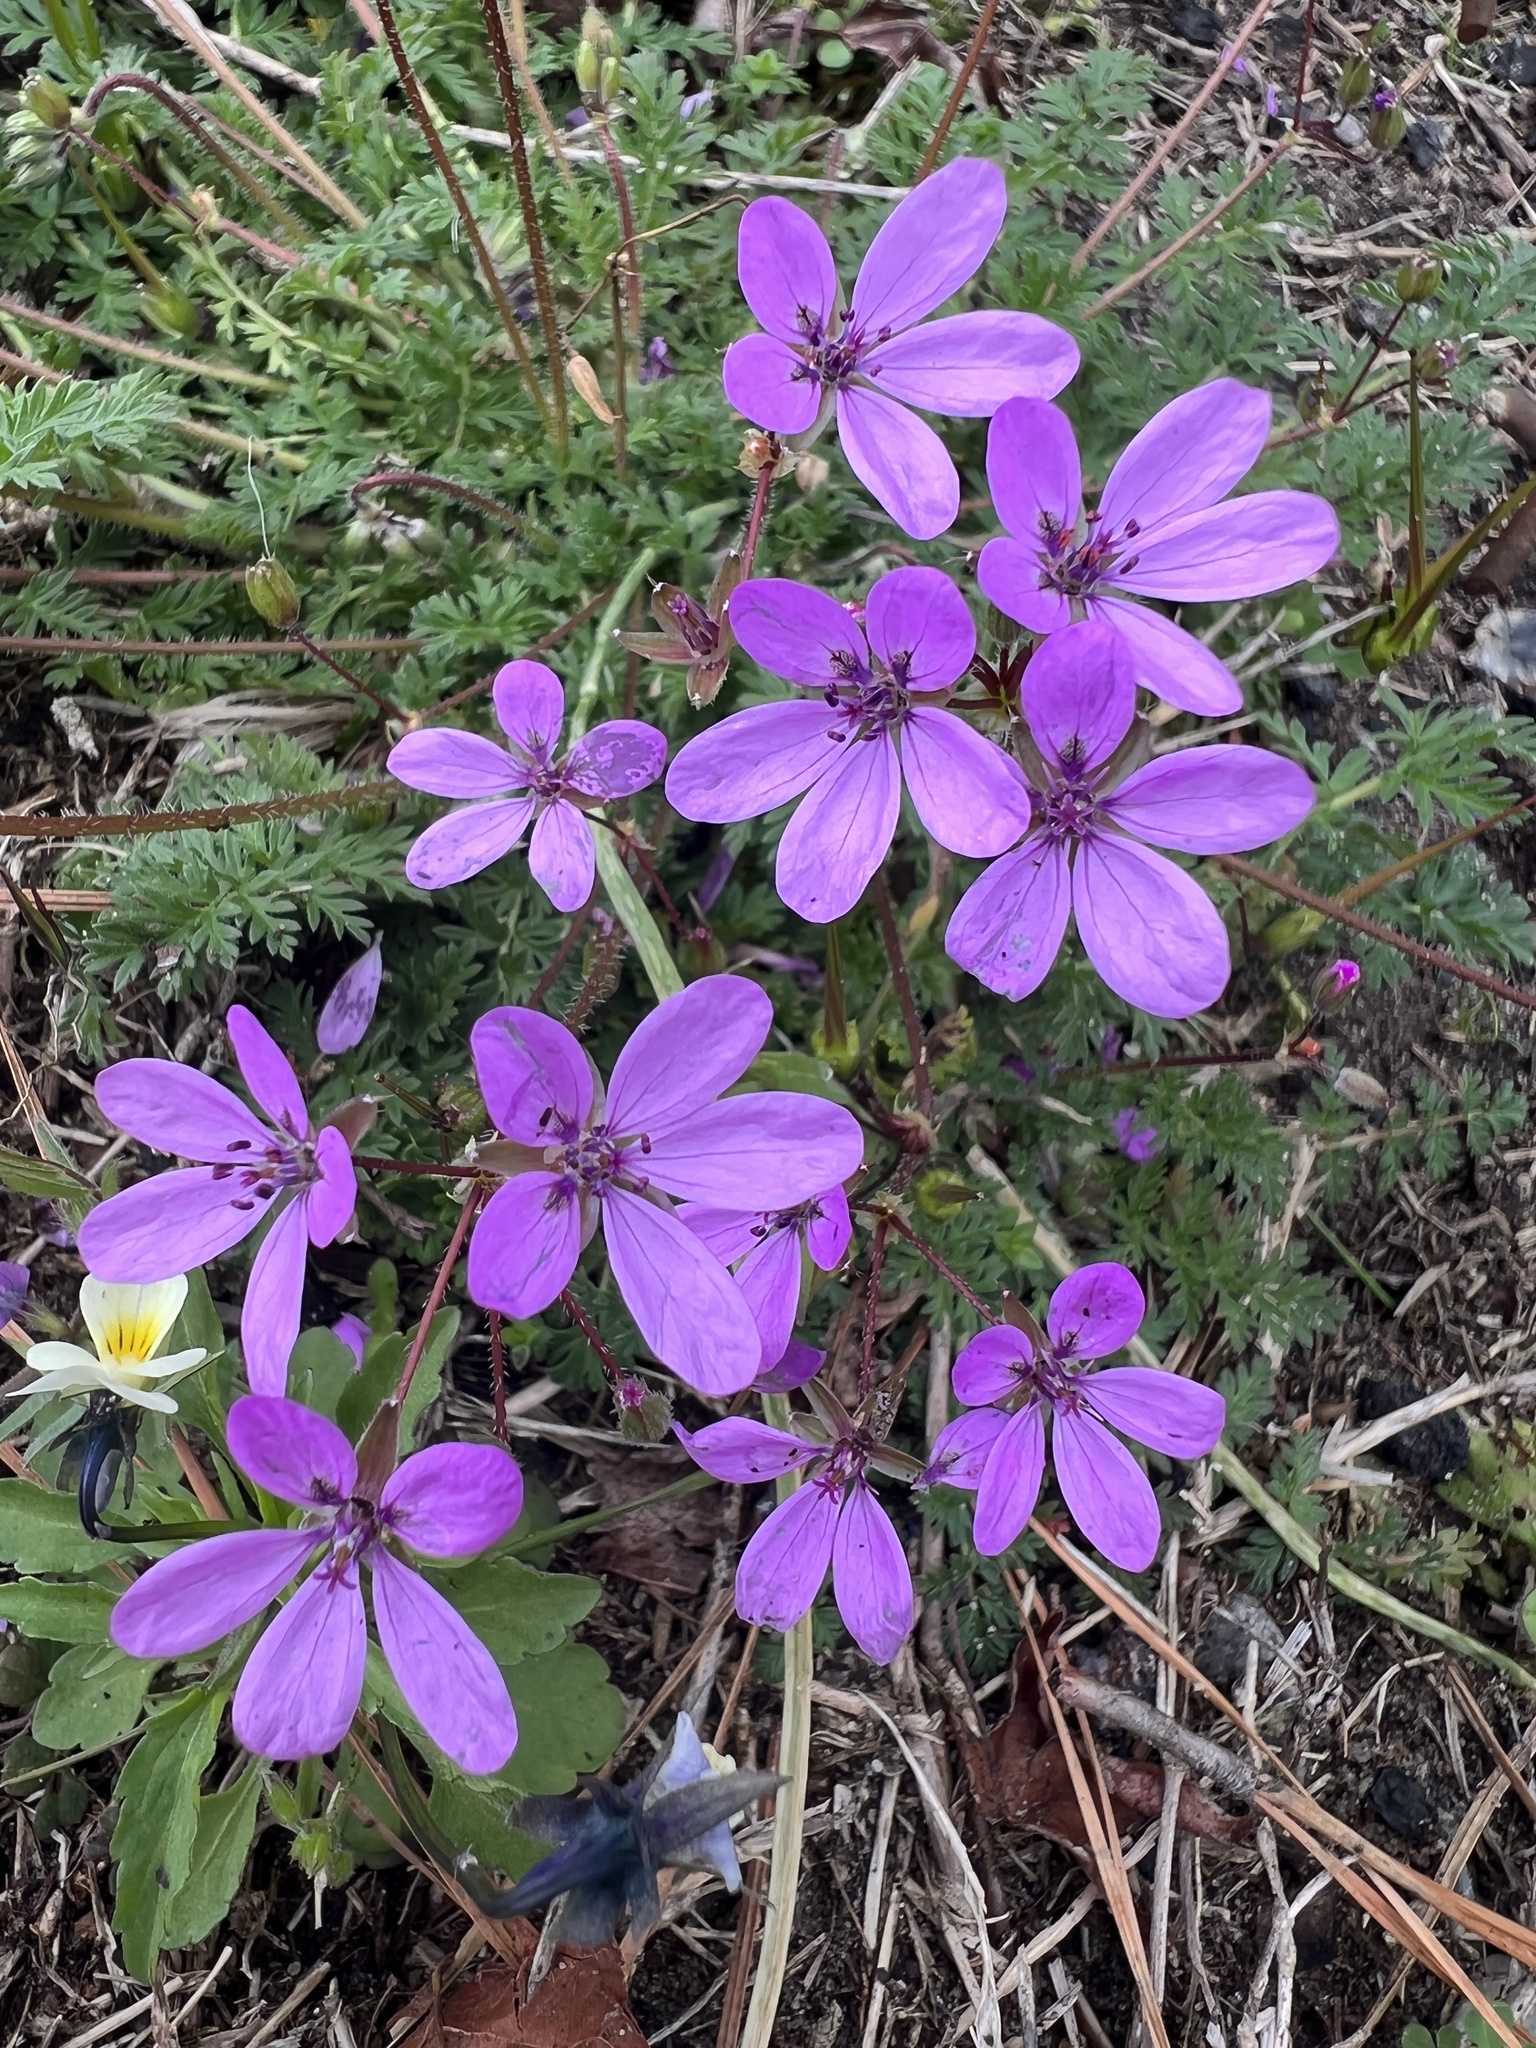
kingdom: Plantae
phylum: Tracheophyta
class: Magnoliopsida
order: Geraniales
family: Geraniaceae
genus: Erodium
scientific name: Erodium cicutarium
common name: Common stork's-bill
